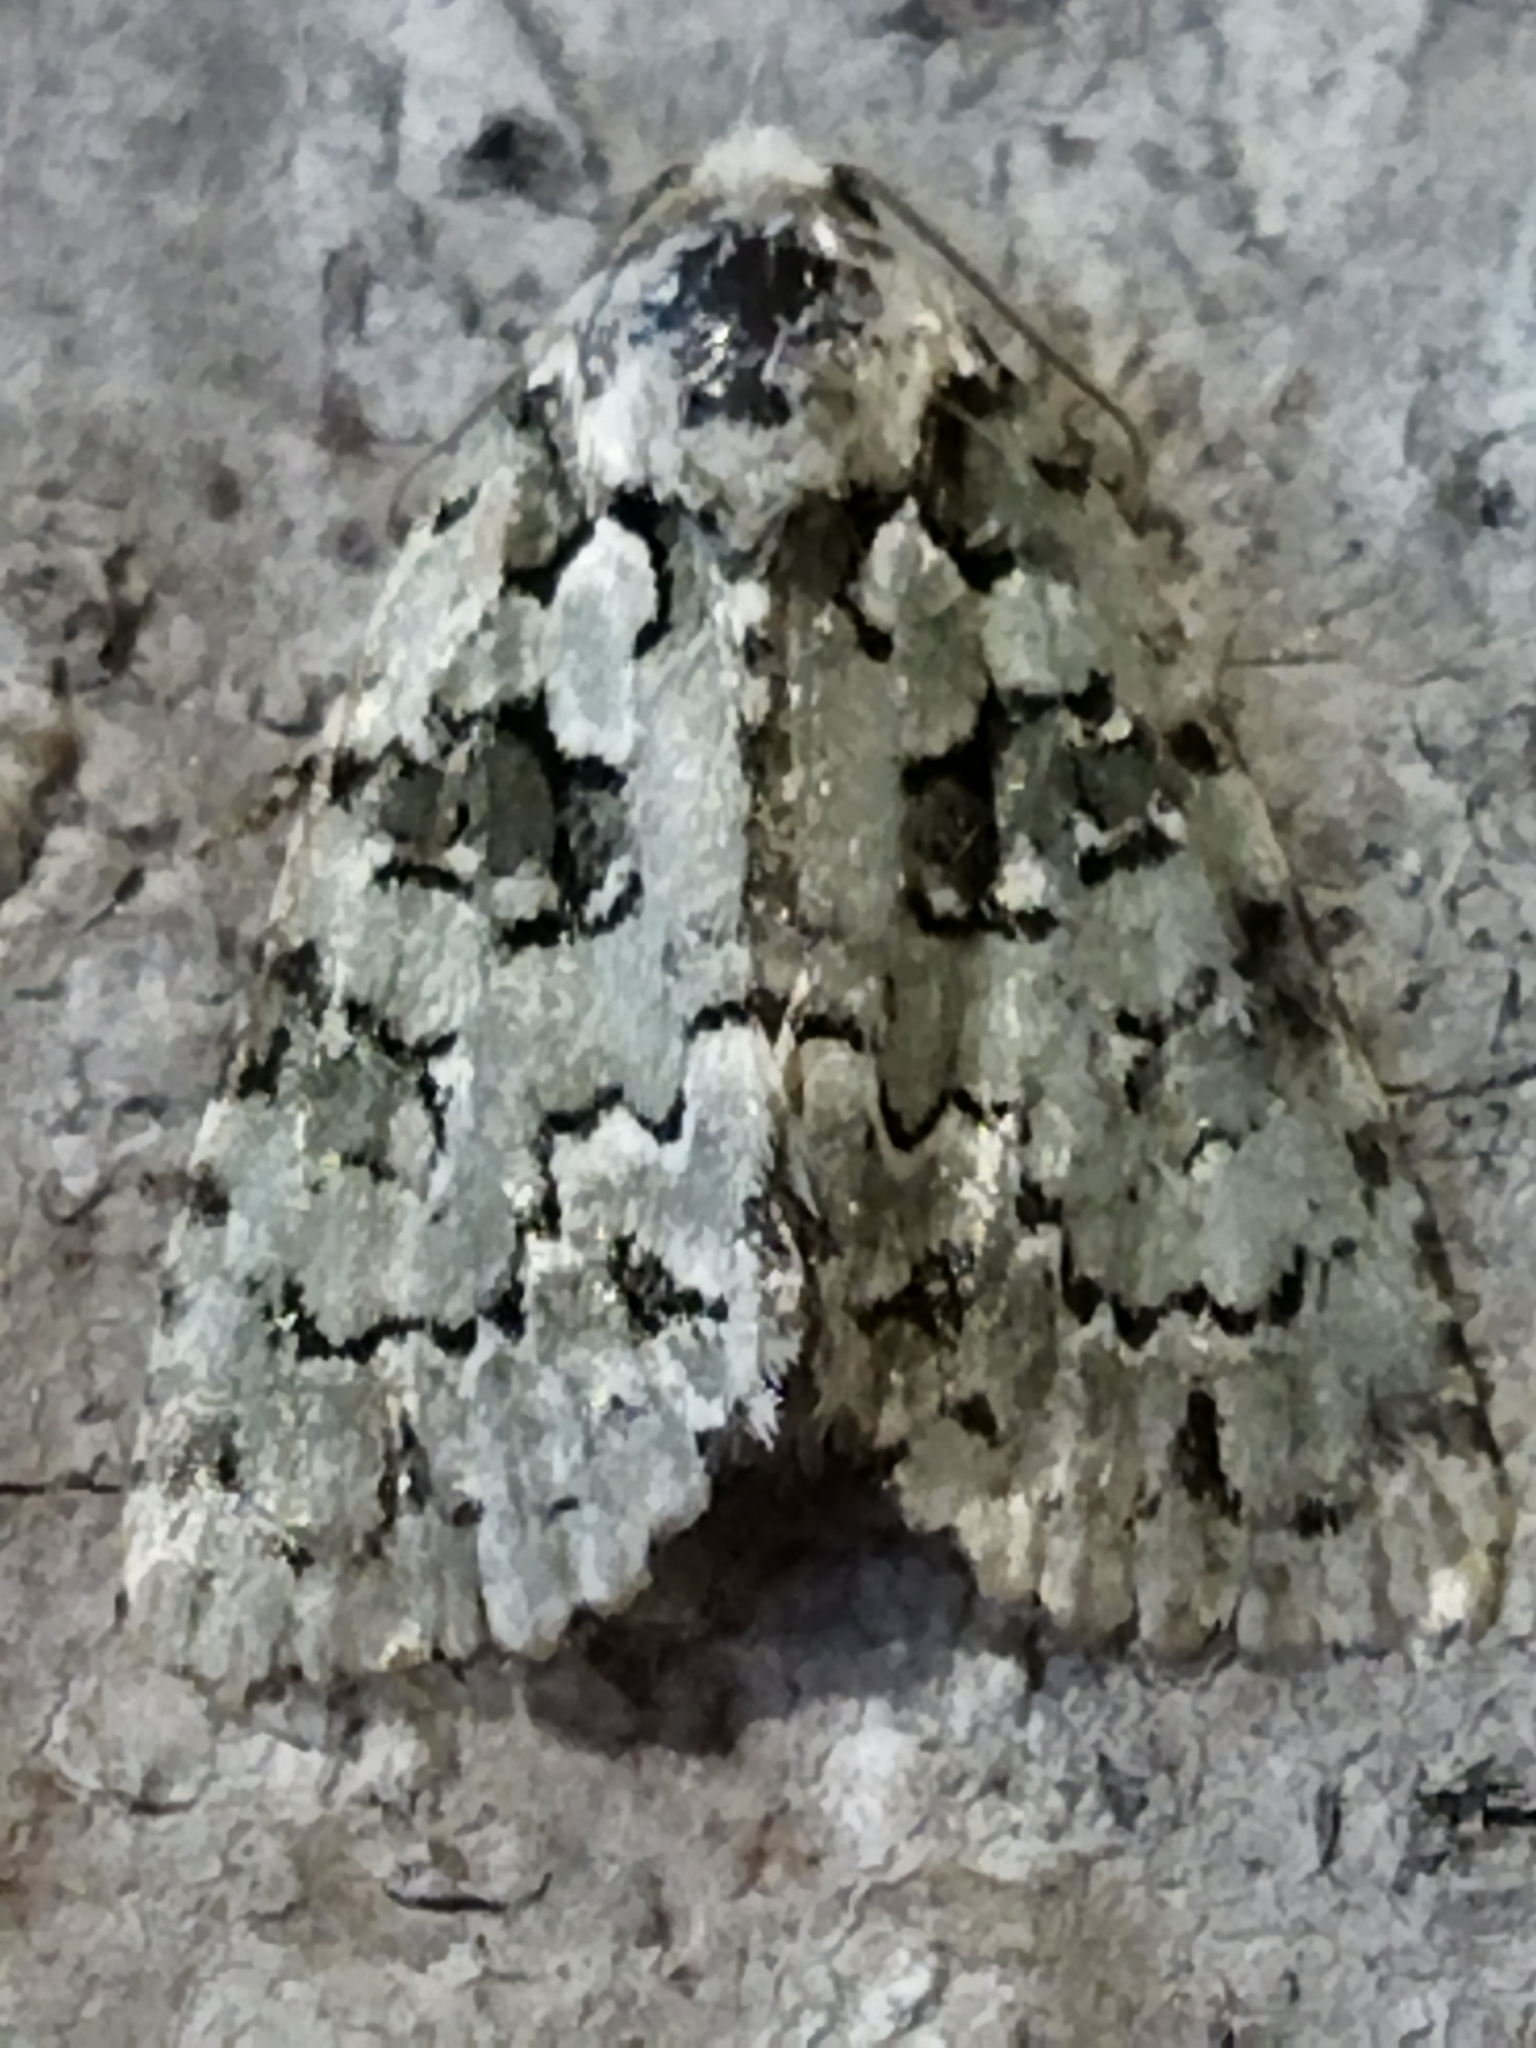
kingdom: Plantae
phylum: Chlorophyta
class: Ulvophyceae
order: Bryopsidales
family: Bryopsidaceae
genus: Bryopsis
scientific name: Bryopsis
